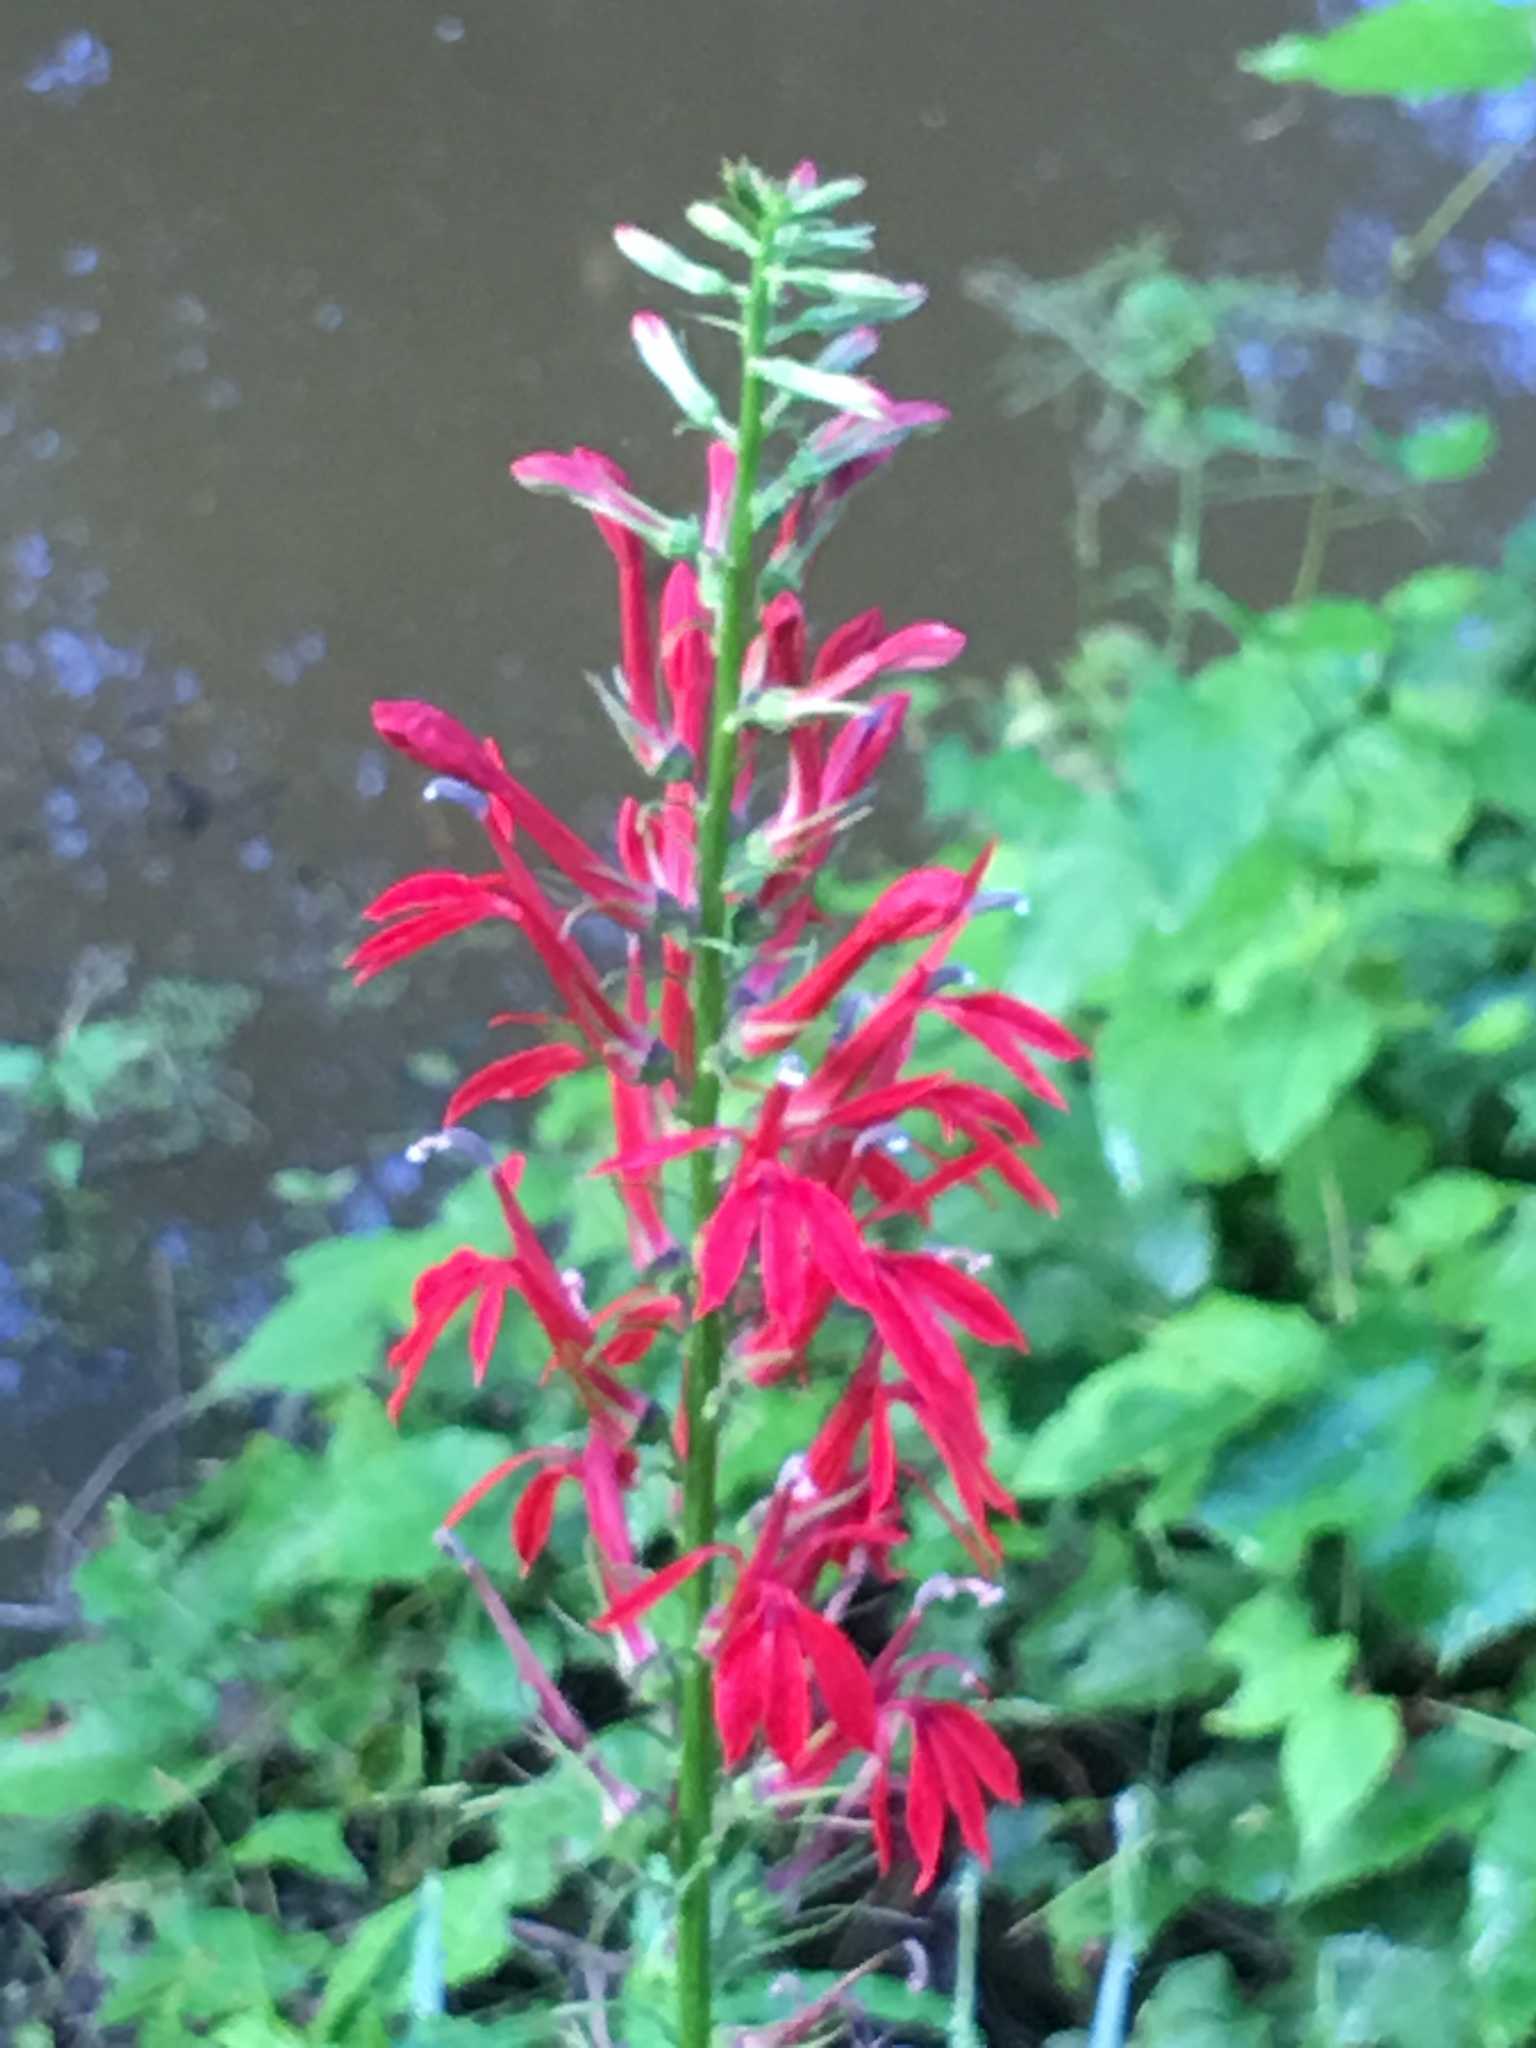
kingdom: Plantae
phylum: Tracheophyta
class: Magnoliopsida
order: Asterales
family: Campanulaceae
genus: Lobelia
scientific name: Lobelia cardinalis
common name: Cardinal flower
